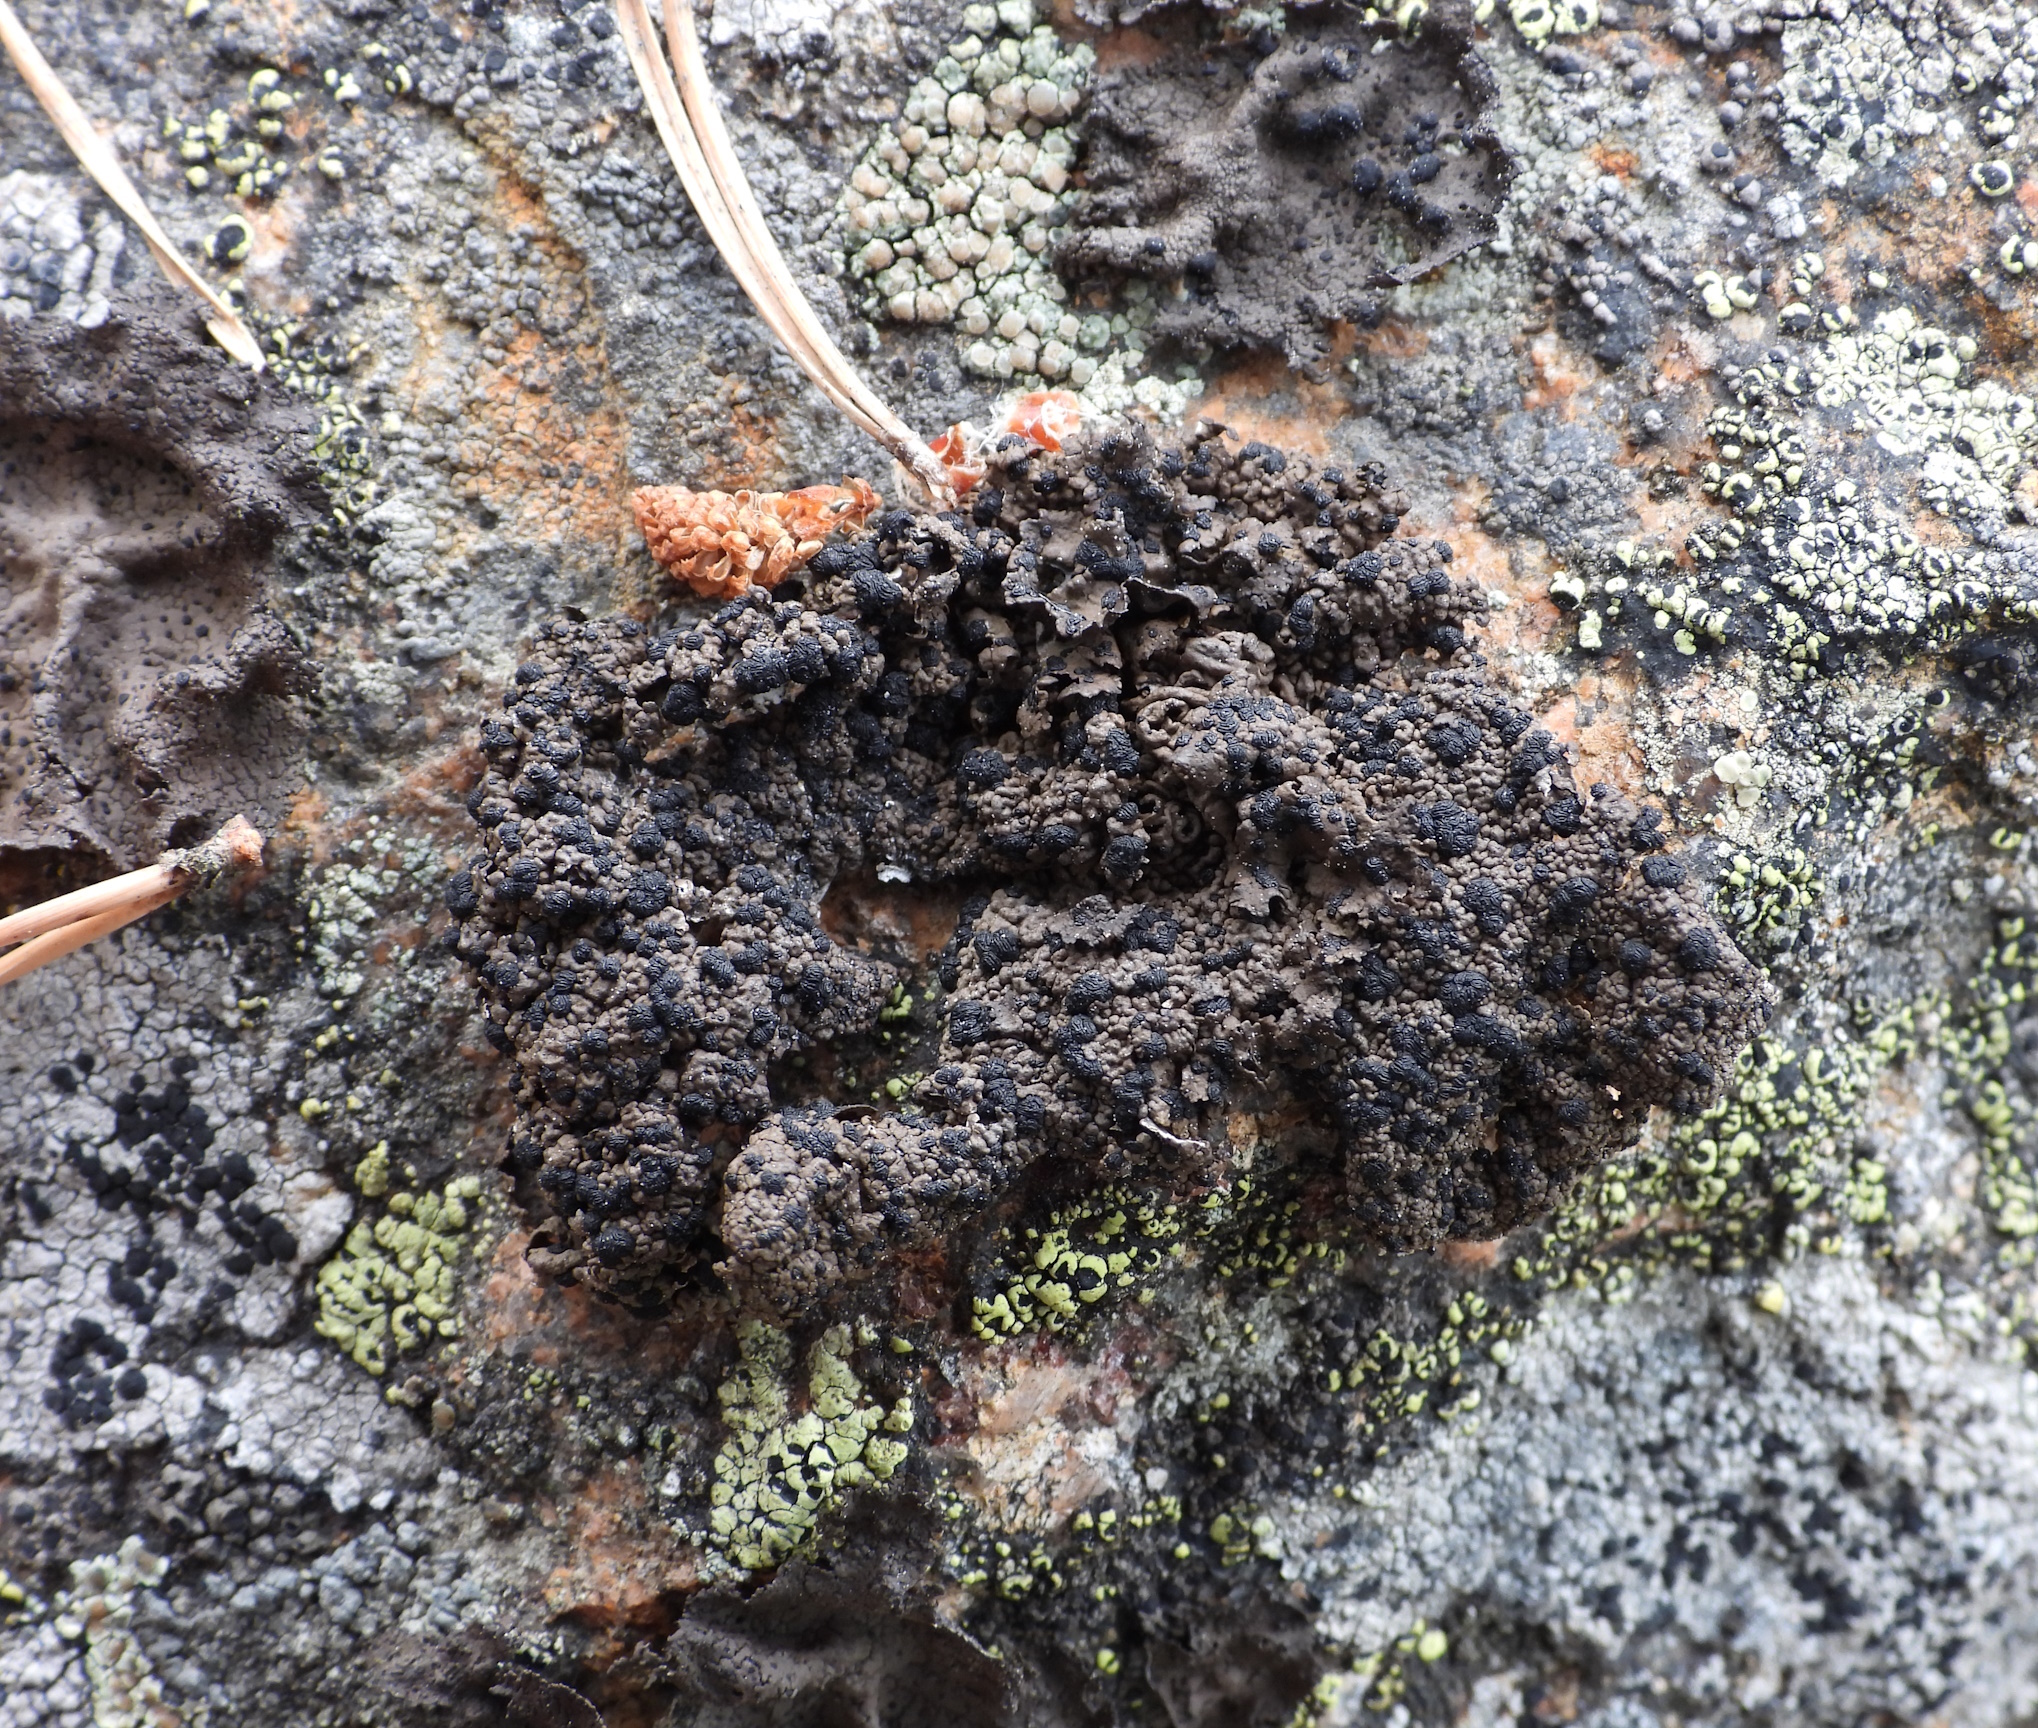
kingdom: Fungi
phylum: Ascomycota
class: Lecanoromycetes
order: Umbilicariales
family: Umbilicariaceae
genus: Umbilicaria
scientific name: Umbilicaria torrefacta
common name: Punctured rock tripe lichen
